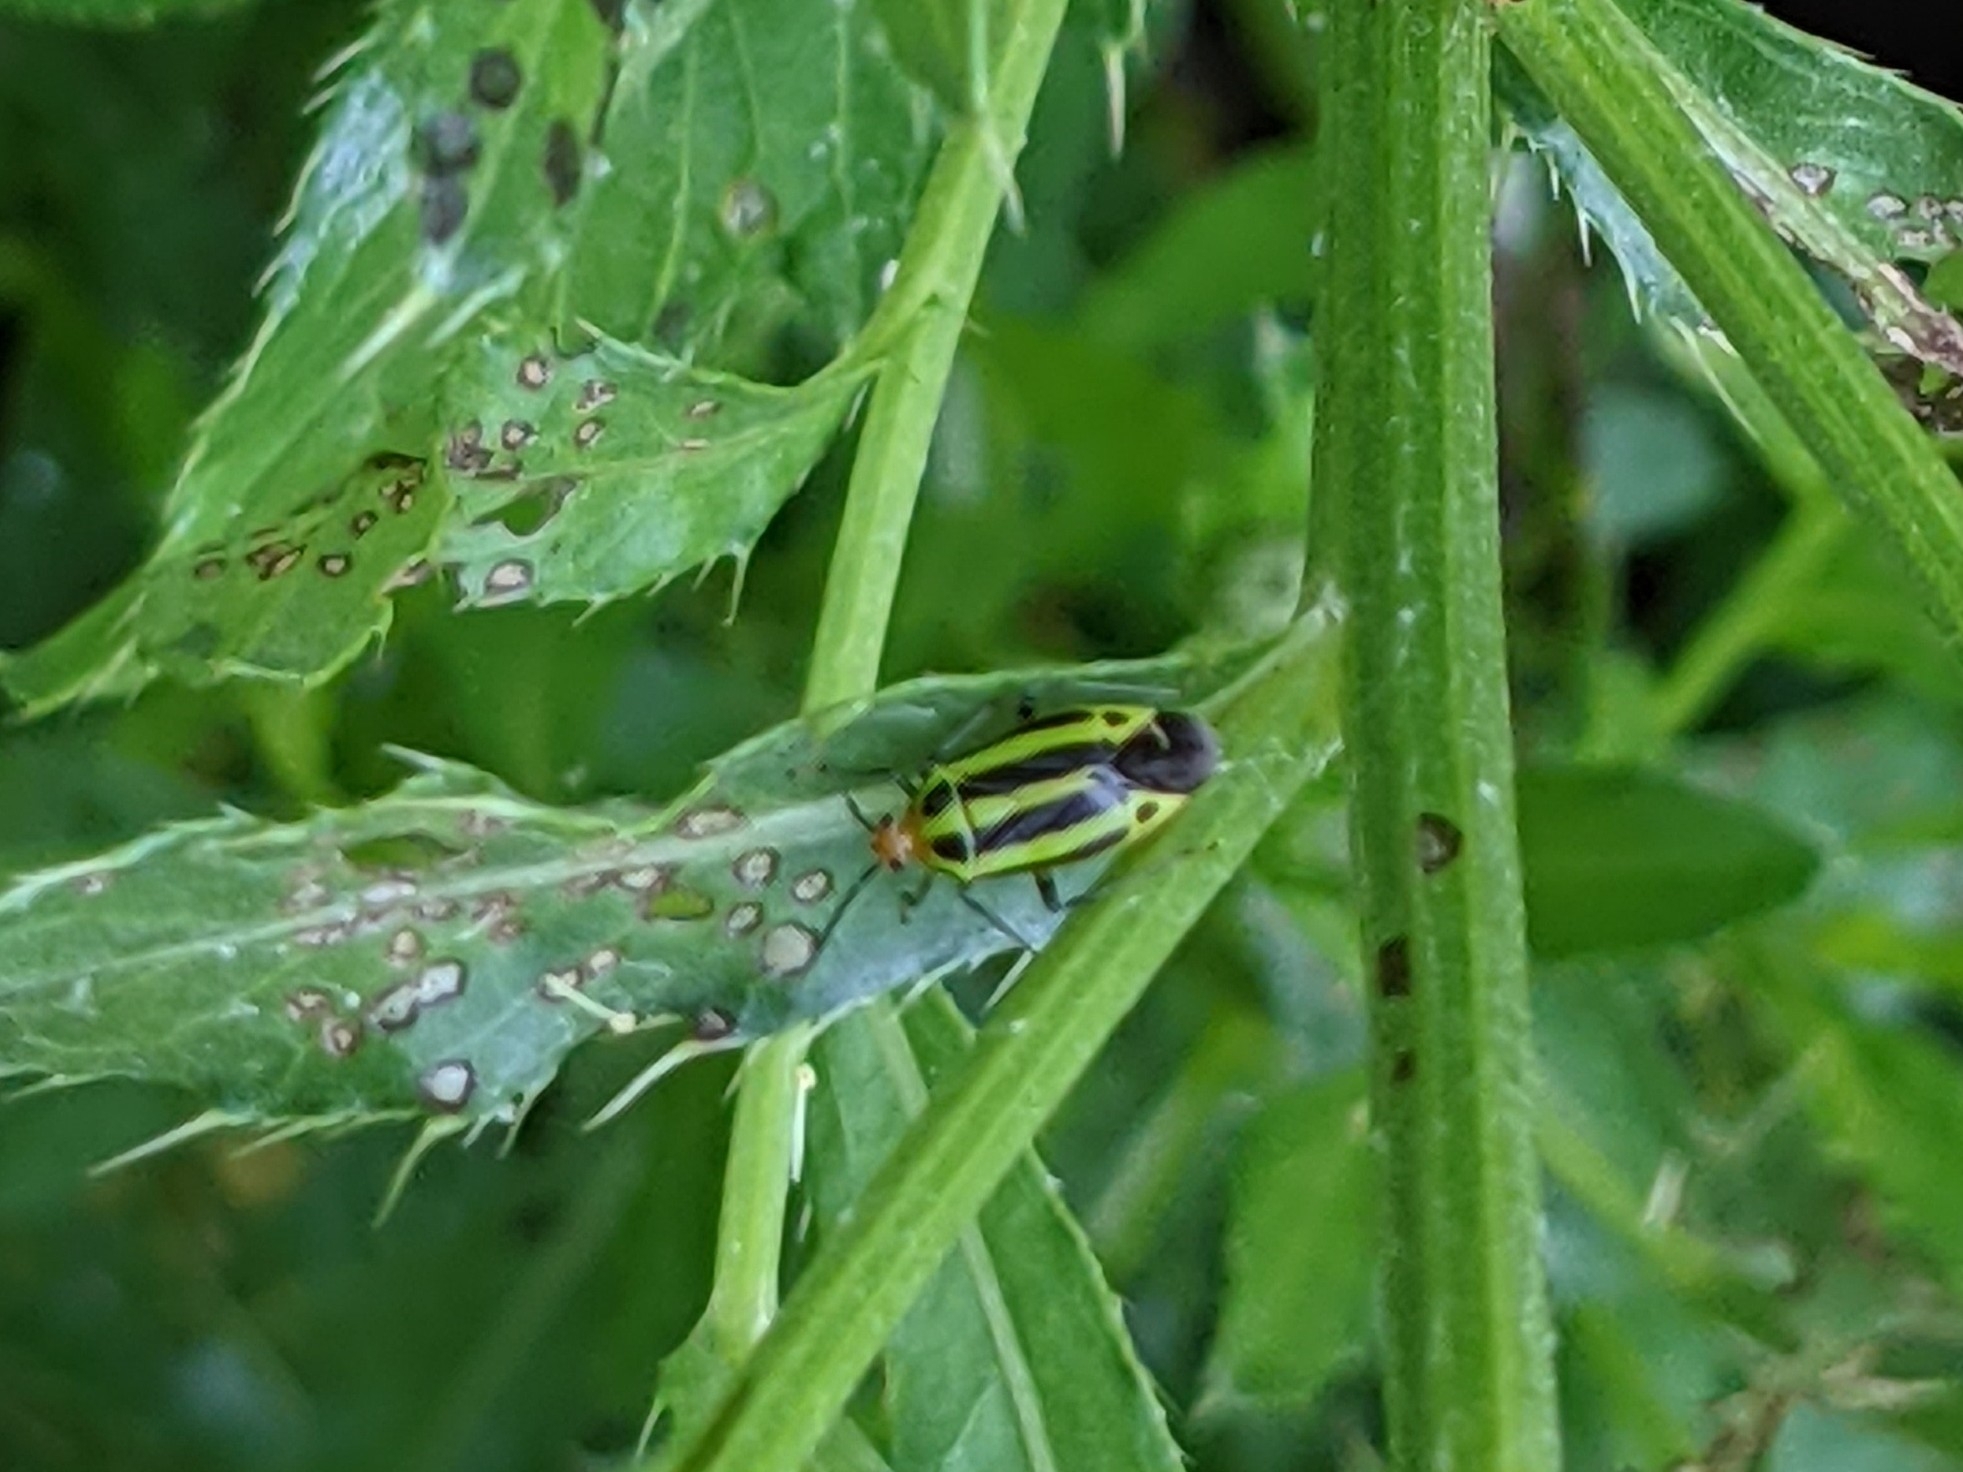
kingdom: Animalia
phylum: Arthropoda
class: Insecta
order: Hemiptera
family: Miridae
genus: Poecilocapsus
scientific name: Poecilocapsus lineatus
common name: Four-lined plant bug
